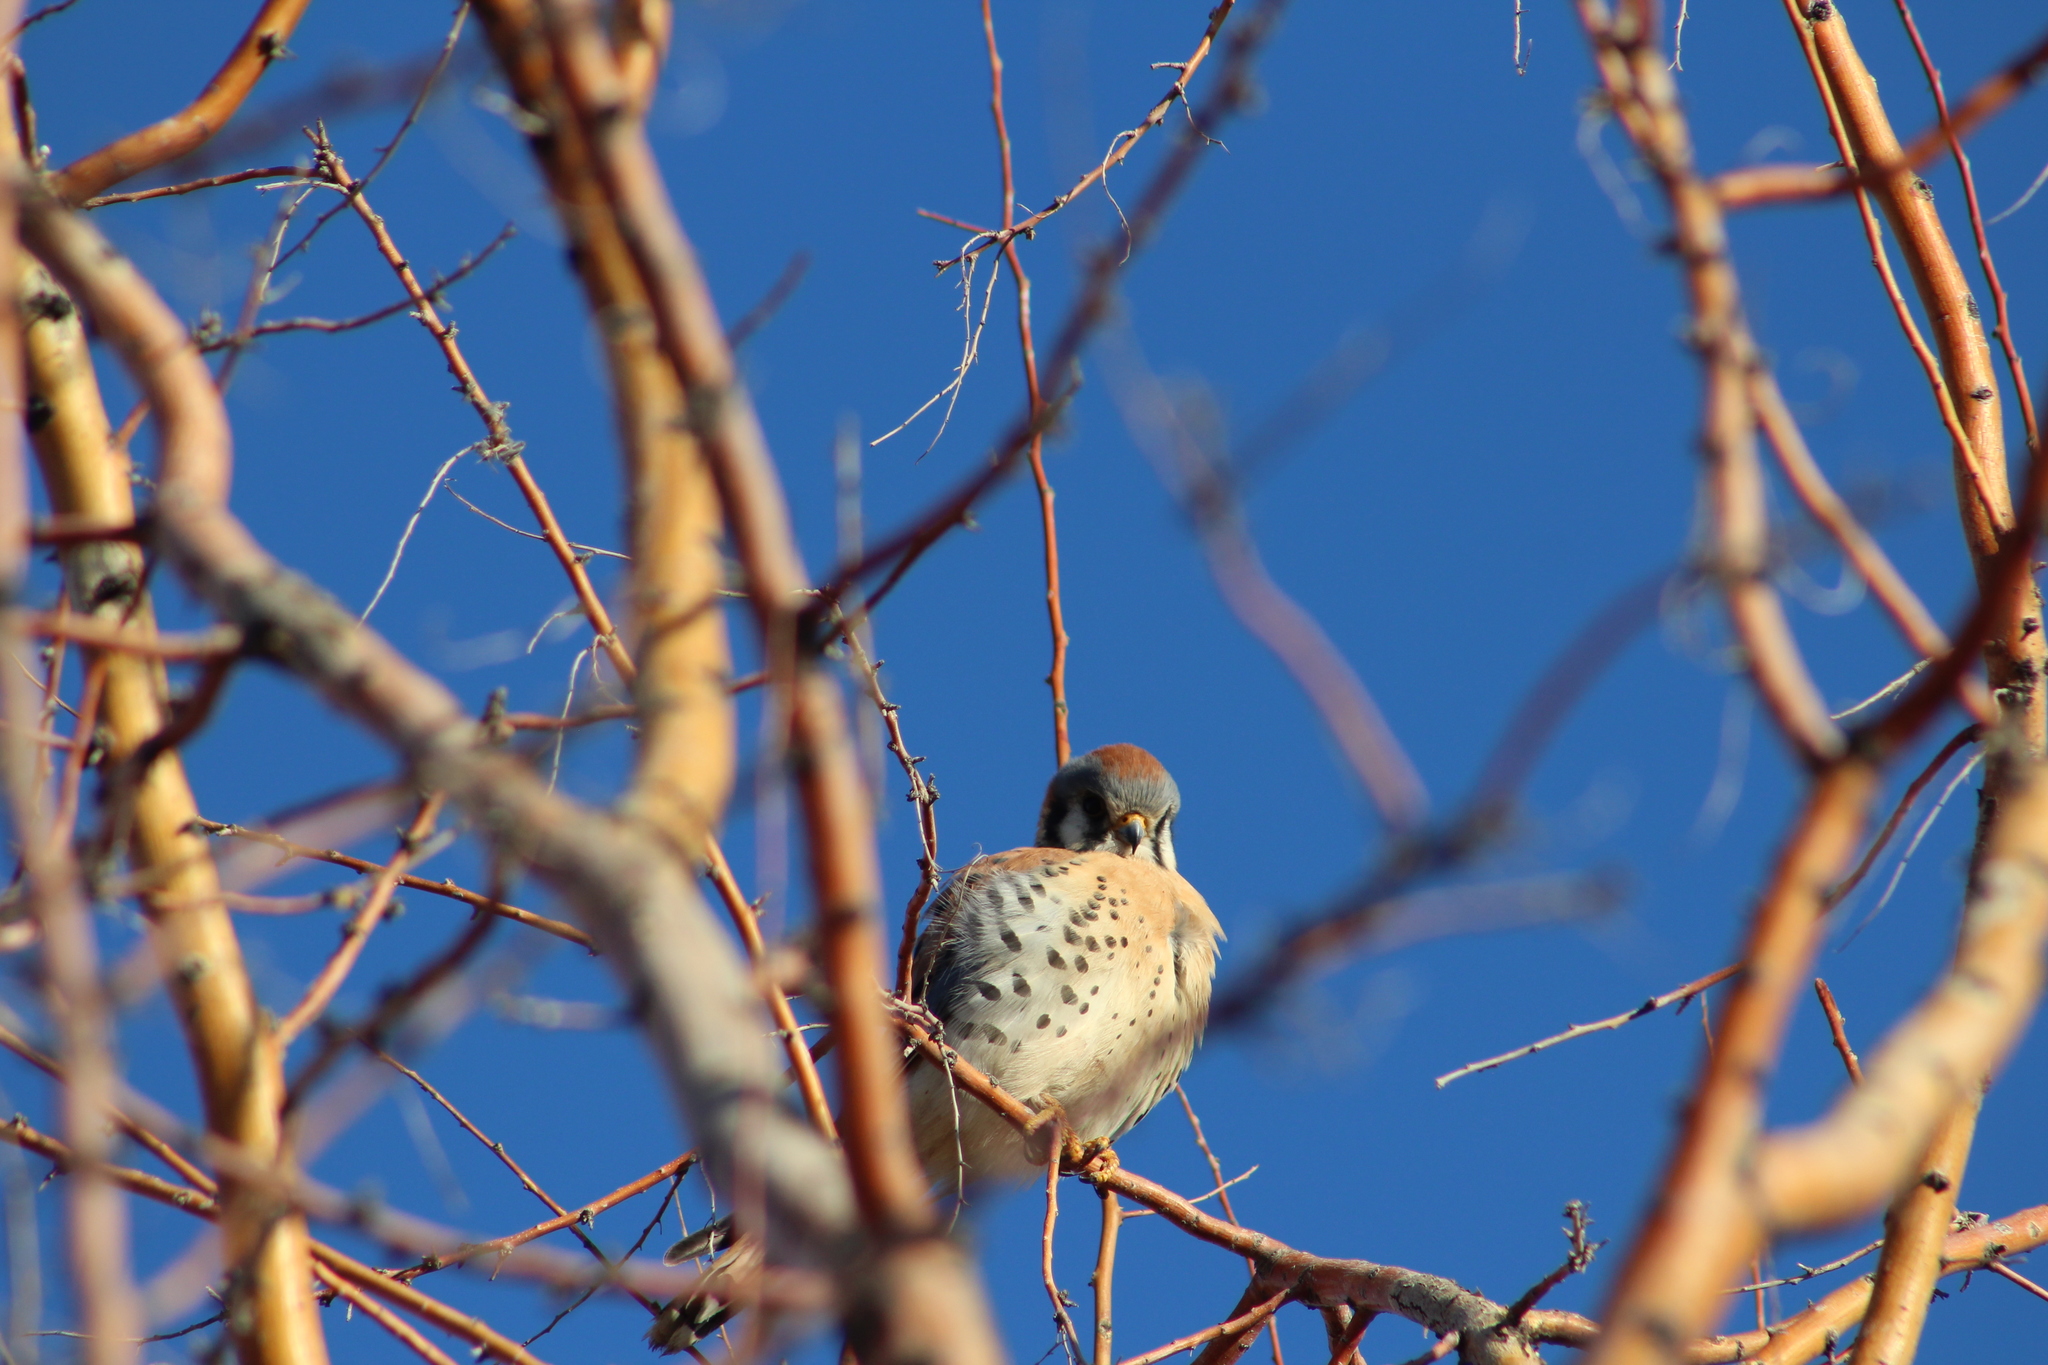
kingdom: Animalia
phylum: Chordata
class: Aves
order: Falconiformes
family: Falconidae
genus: Falco
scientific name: Falco sparverius
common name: American kestrel
